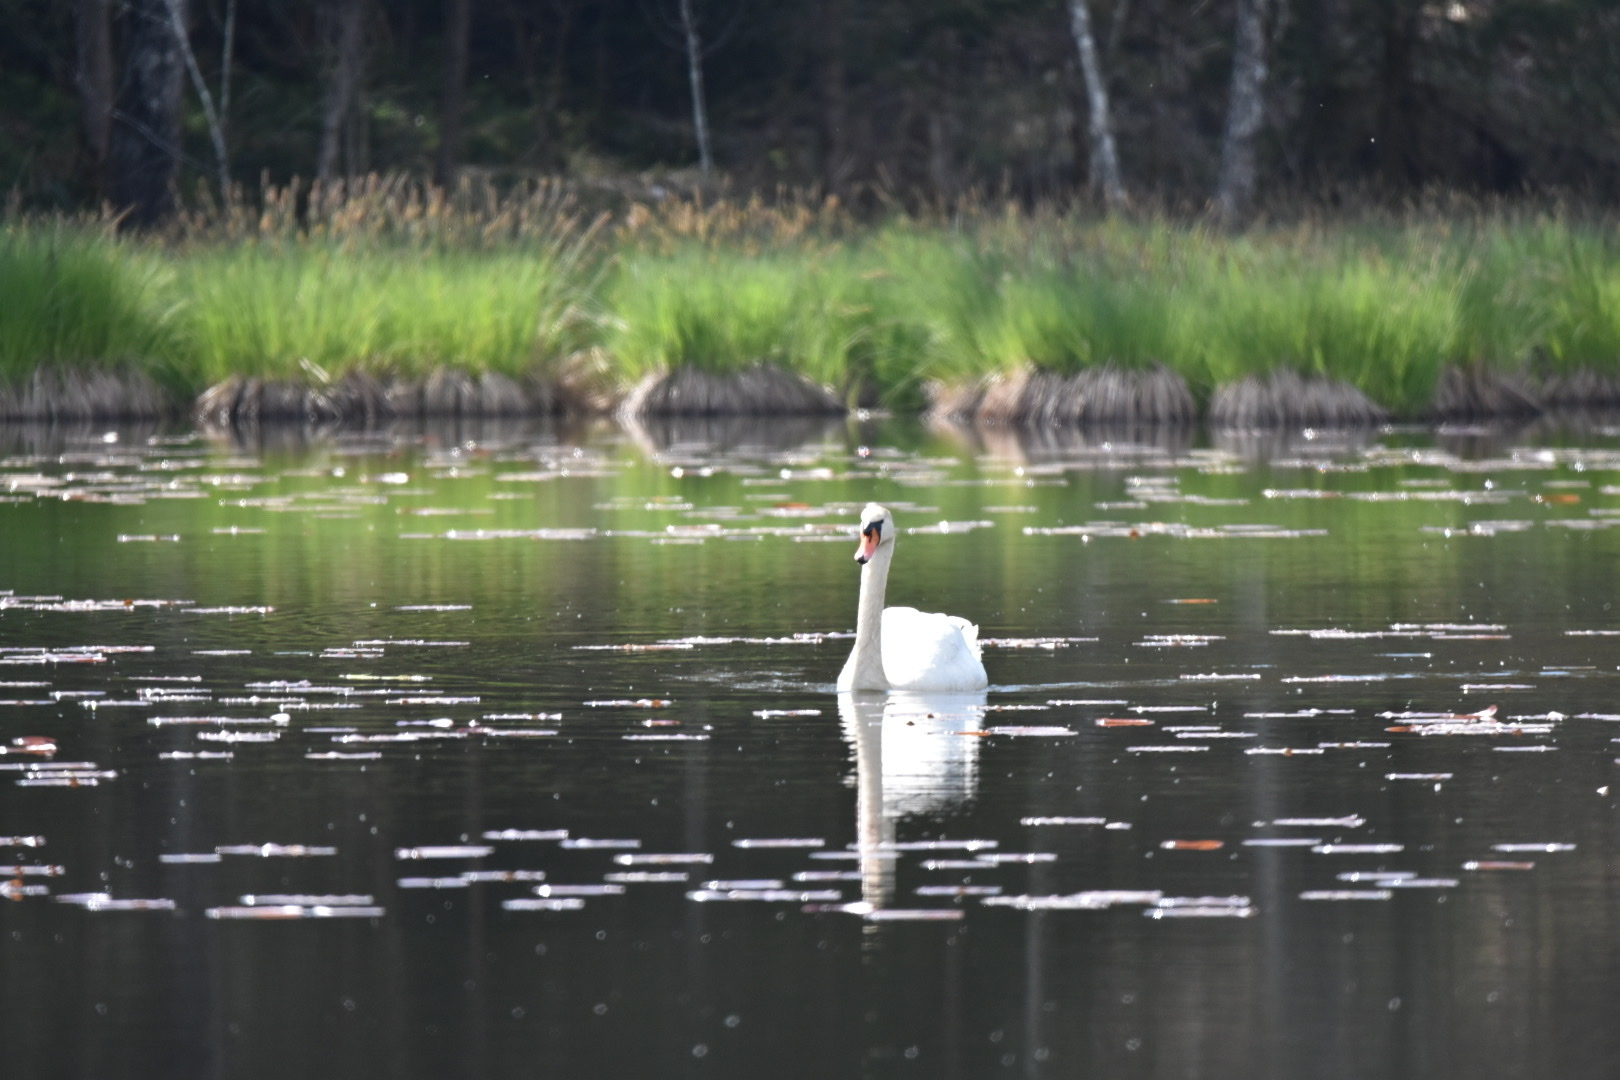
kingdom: Animalia
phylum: Chordata
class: Aves
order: Anseriformes
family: Anatidae
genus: Cygnus
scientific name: Cygnus olor
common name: Mute swan
